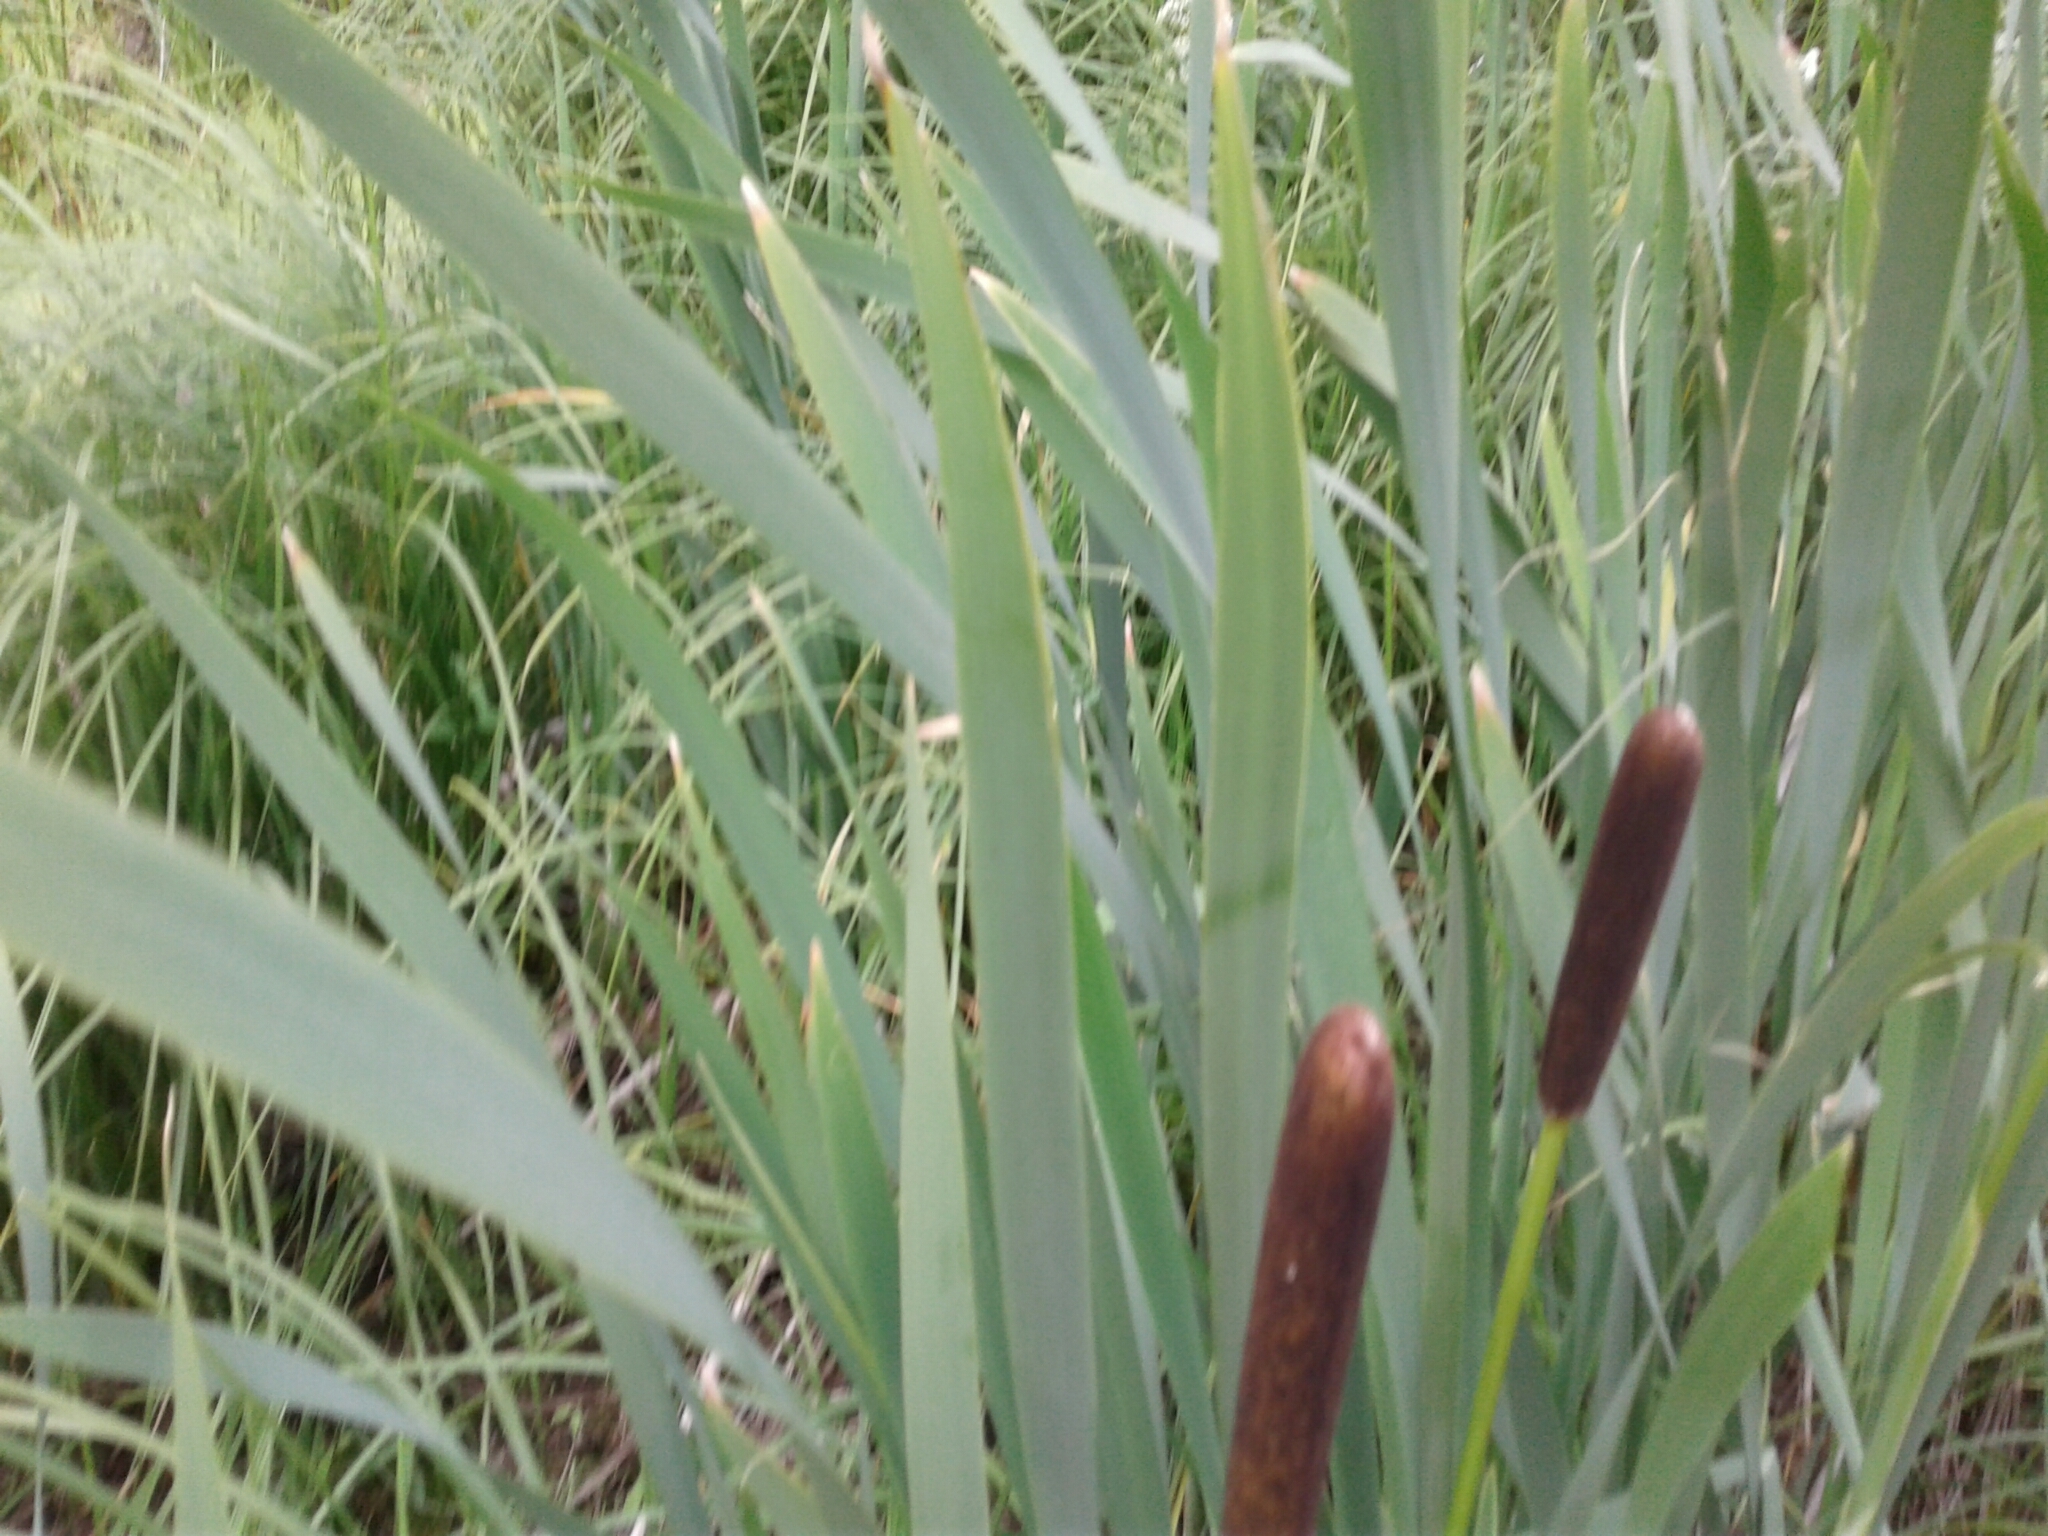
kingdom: Plantae
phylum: Tracheophyta
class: Liliopsida
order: Poales
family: Typhaceae
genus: Typha
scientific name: Typha latifolia
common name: Broadleaf cattail
